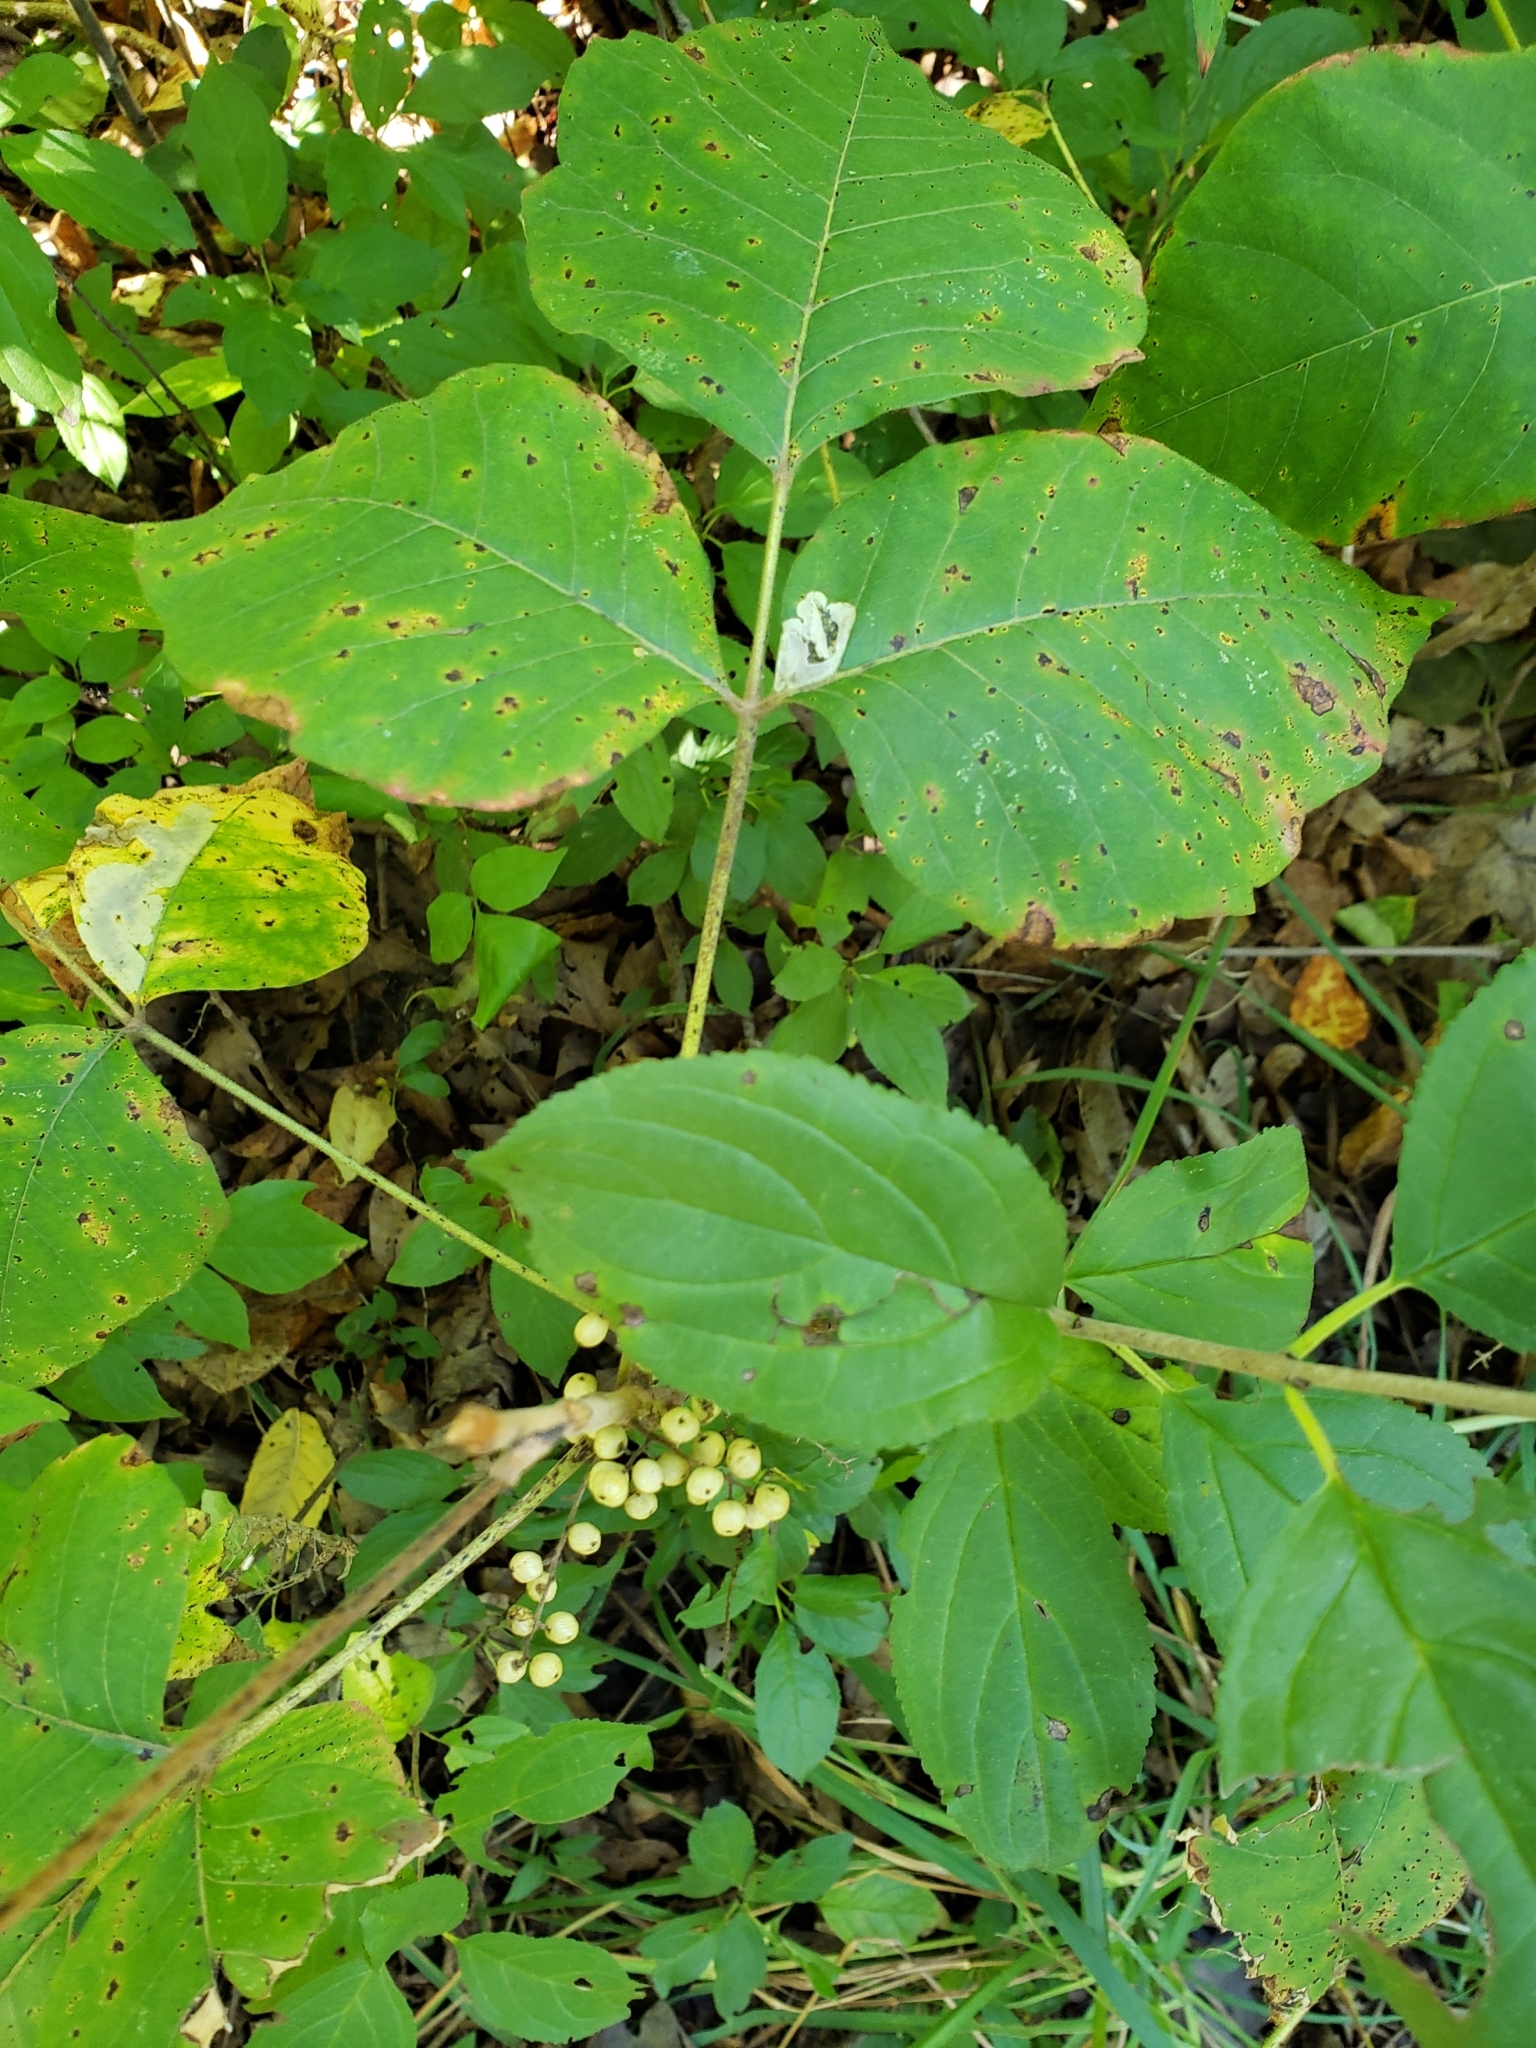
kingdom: Plantae
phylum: Tracheophyta
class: Magnoliopsida
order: Sapindales
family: Anacardiaceae
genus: Toxicodendron
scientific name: Toxicodendron rydbergii
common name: Rydberg's poison-ivy
